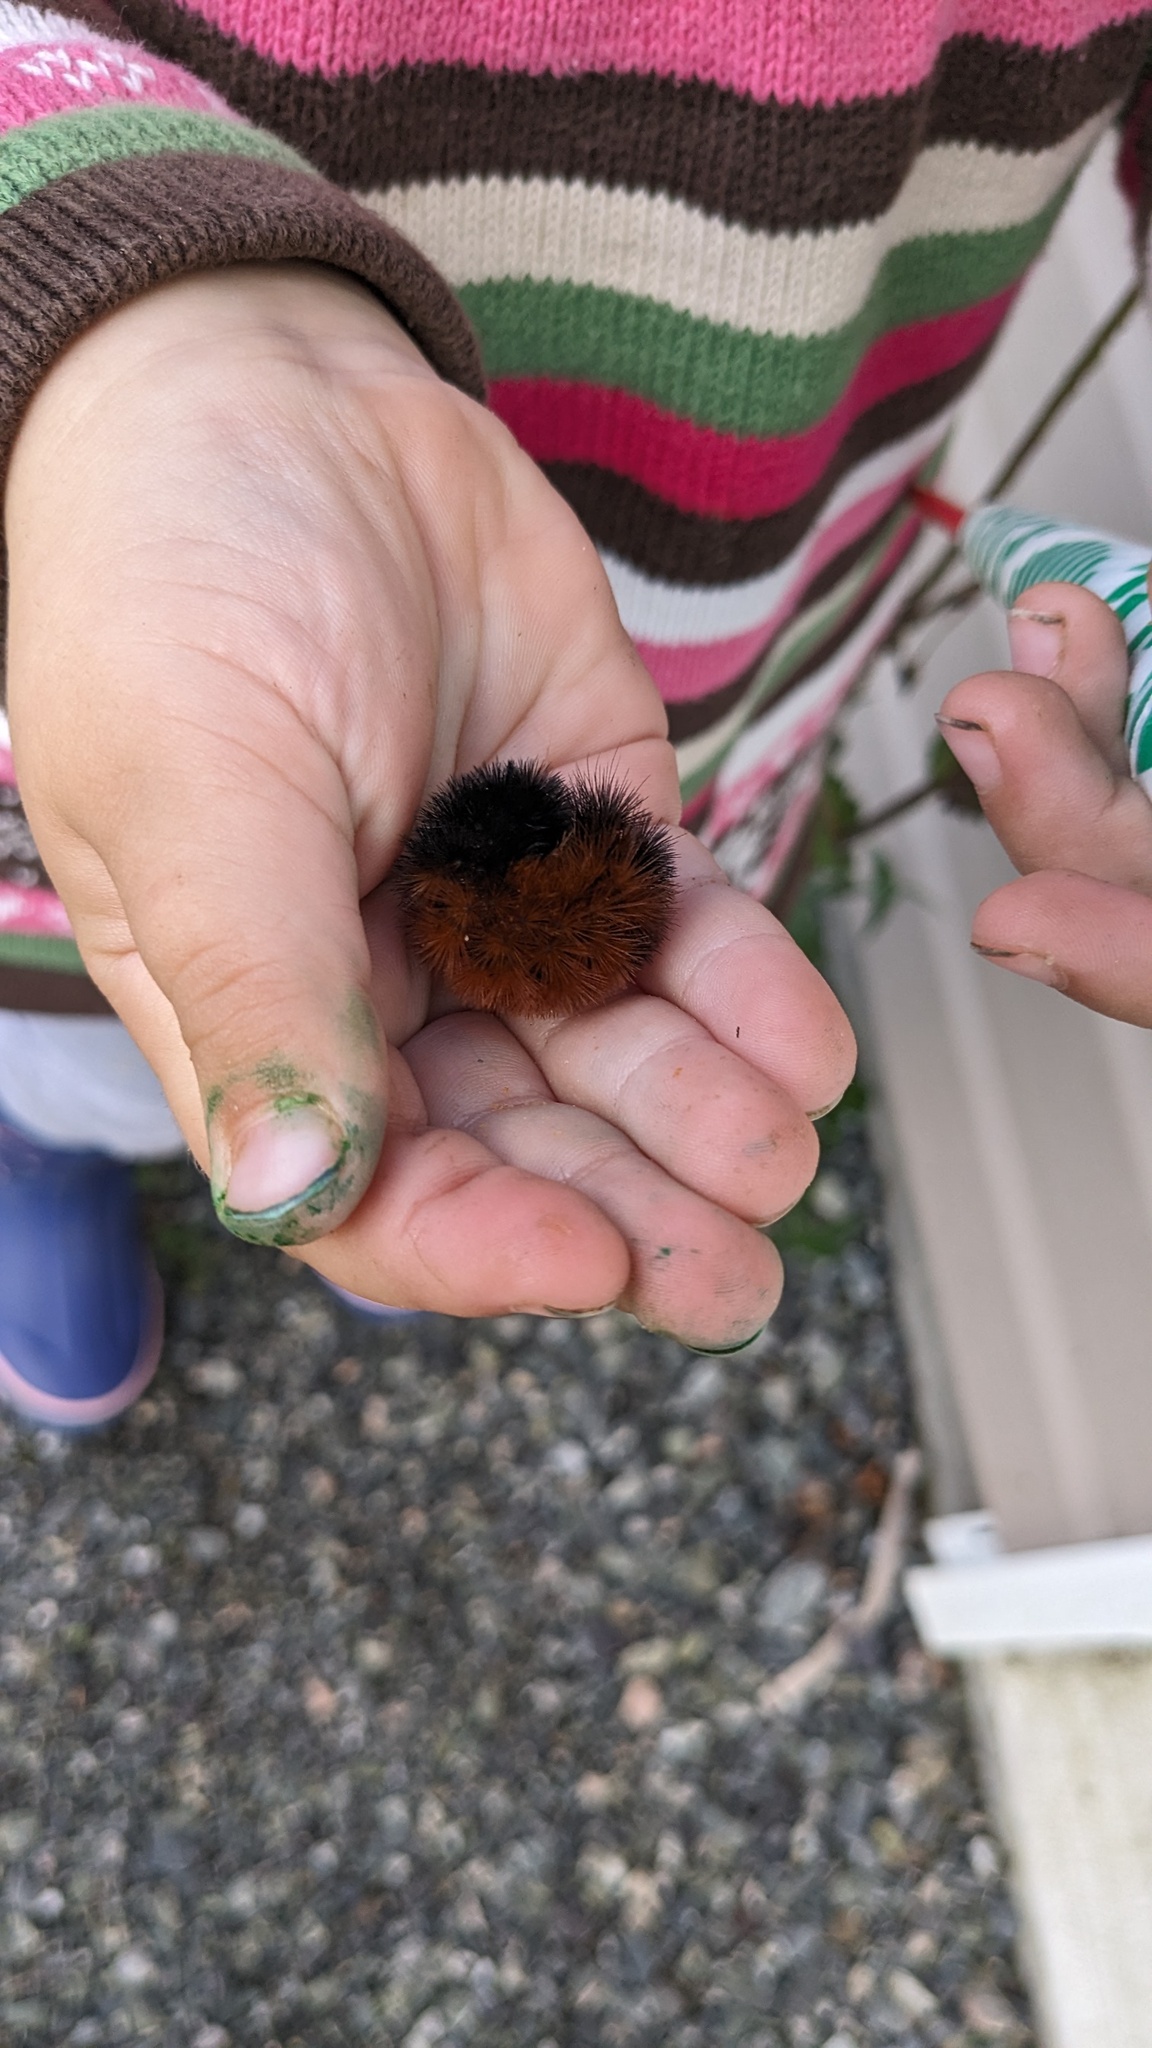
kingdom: Animalia
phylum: Arthropoda
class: Insecta
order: Lepidoptera
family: Erebidae
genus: Pyrrharctia
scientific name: Pyrrharctia isabella
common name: Isabella tiger moth
